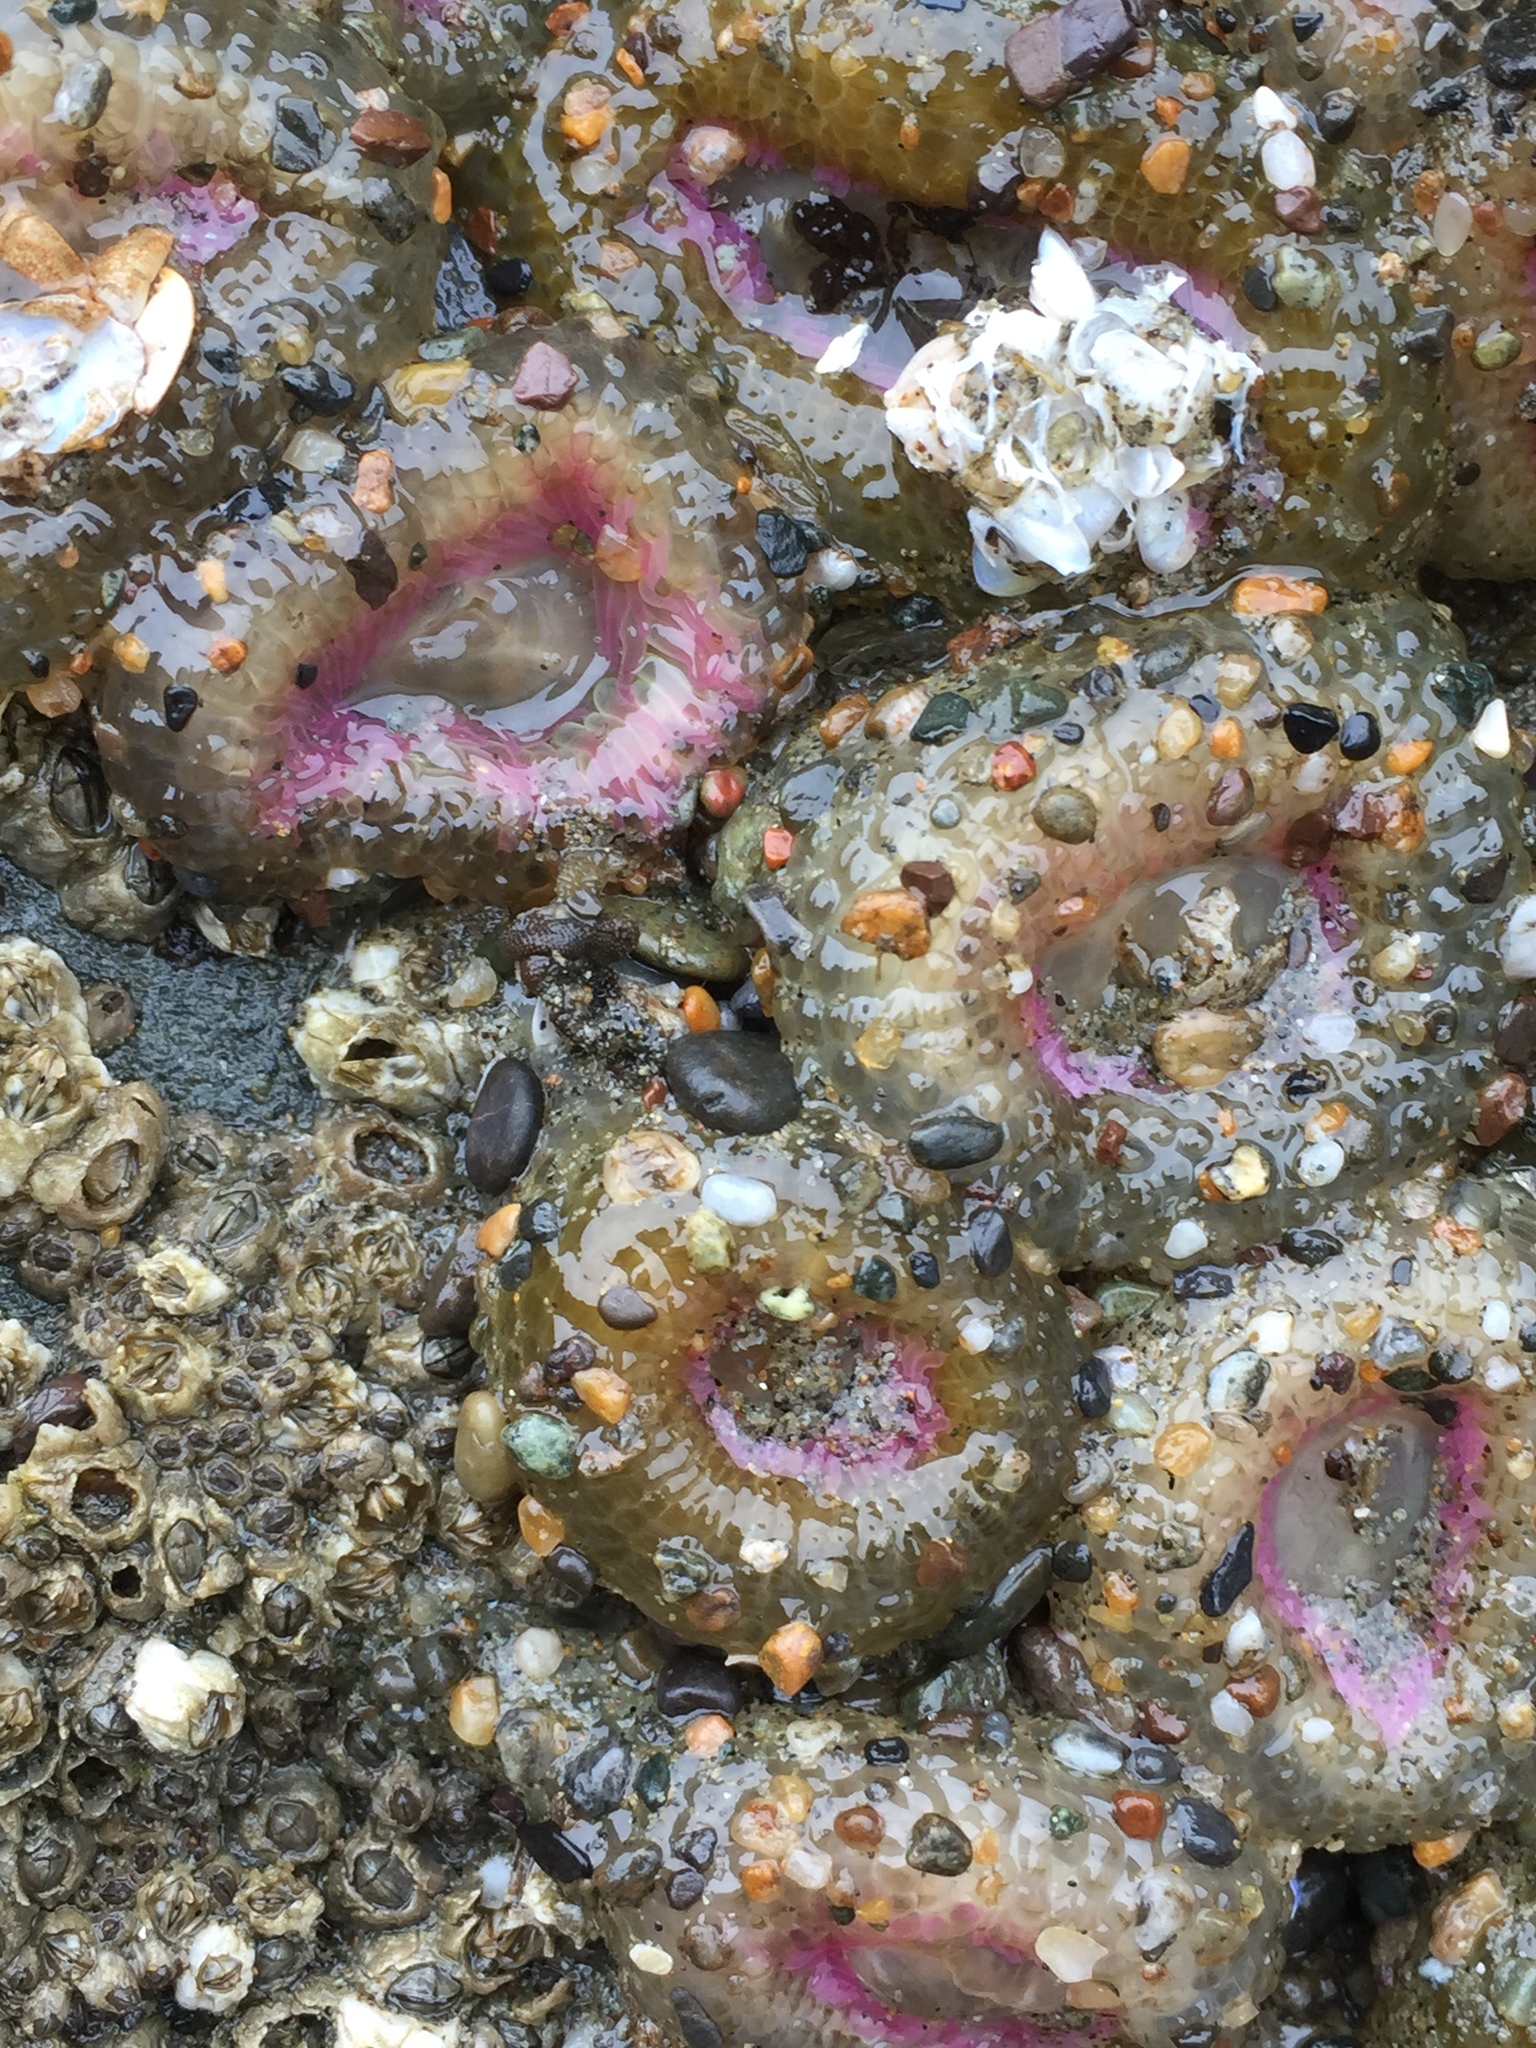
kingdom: Animalia
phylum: Cnidaria
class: Anthozoa
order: Actiniaria
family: Actiniidae
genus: Anthopleura
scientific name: Anthopleura elegantissima
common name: Clonal anemone
